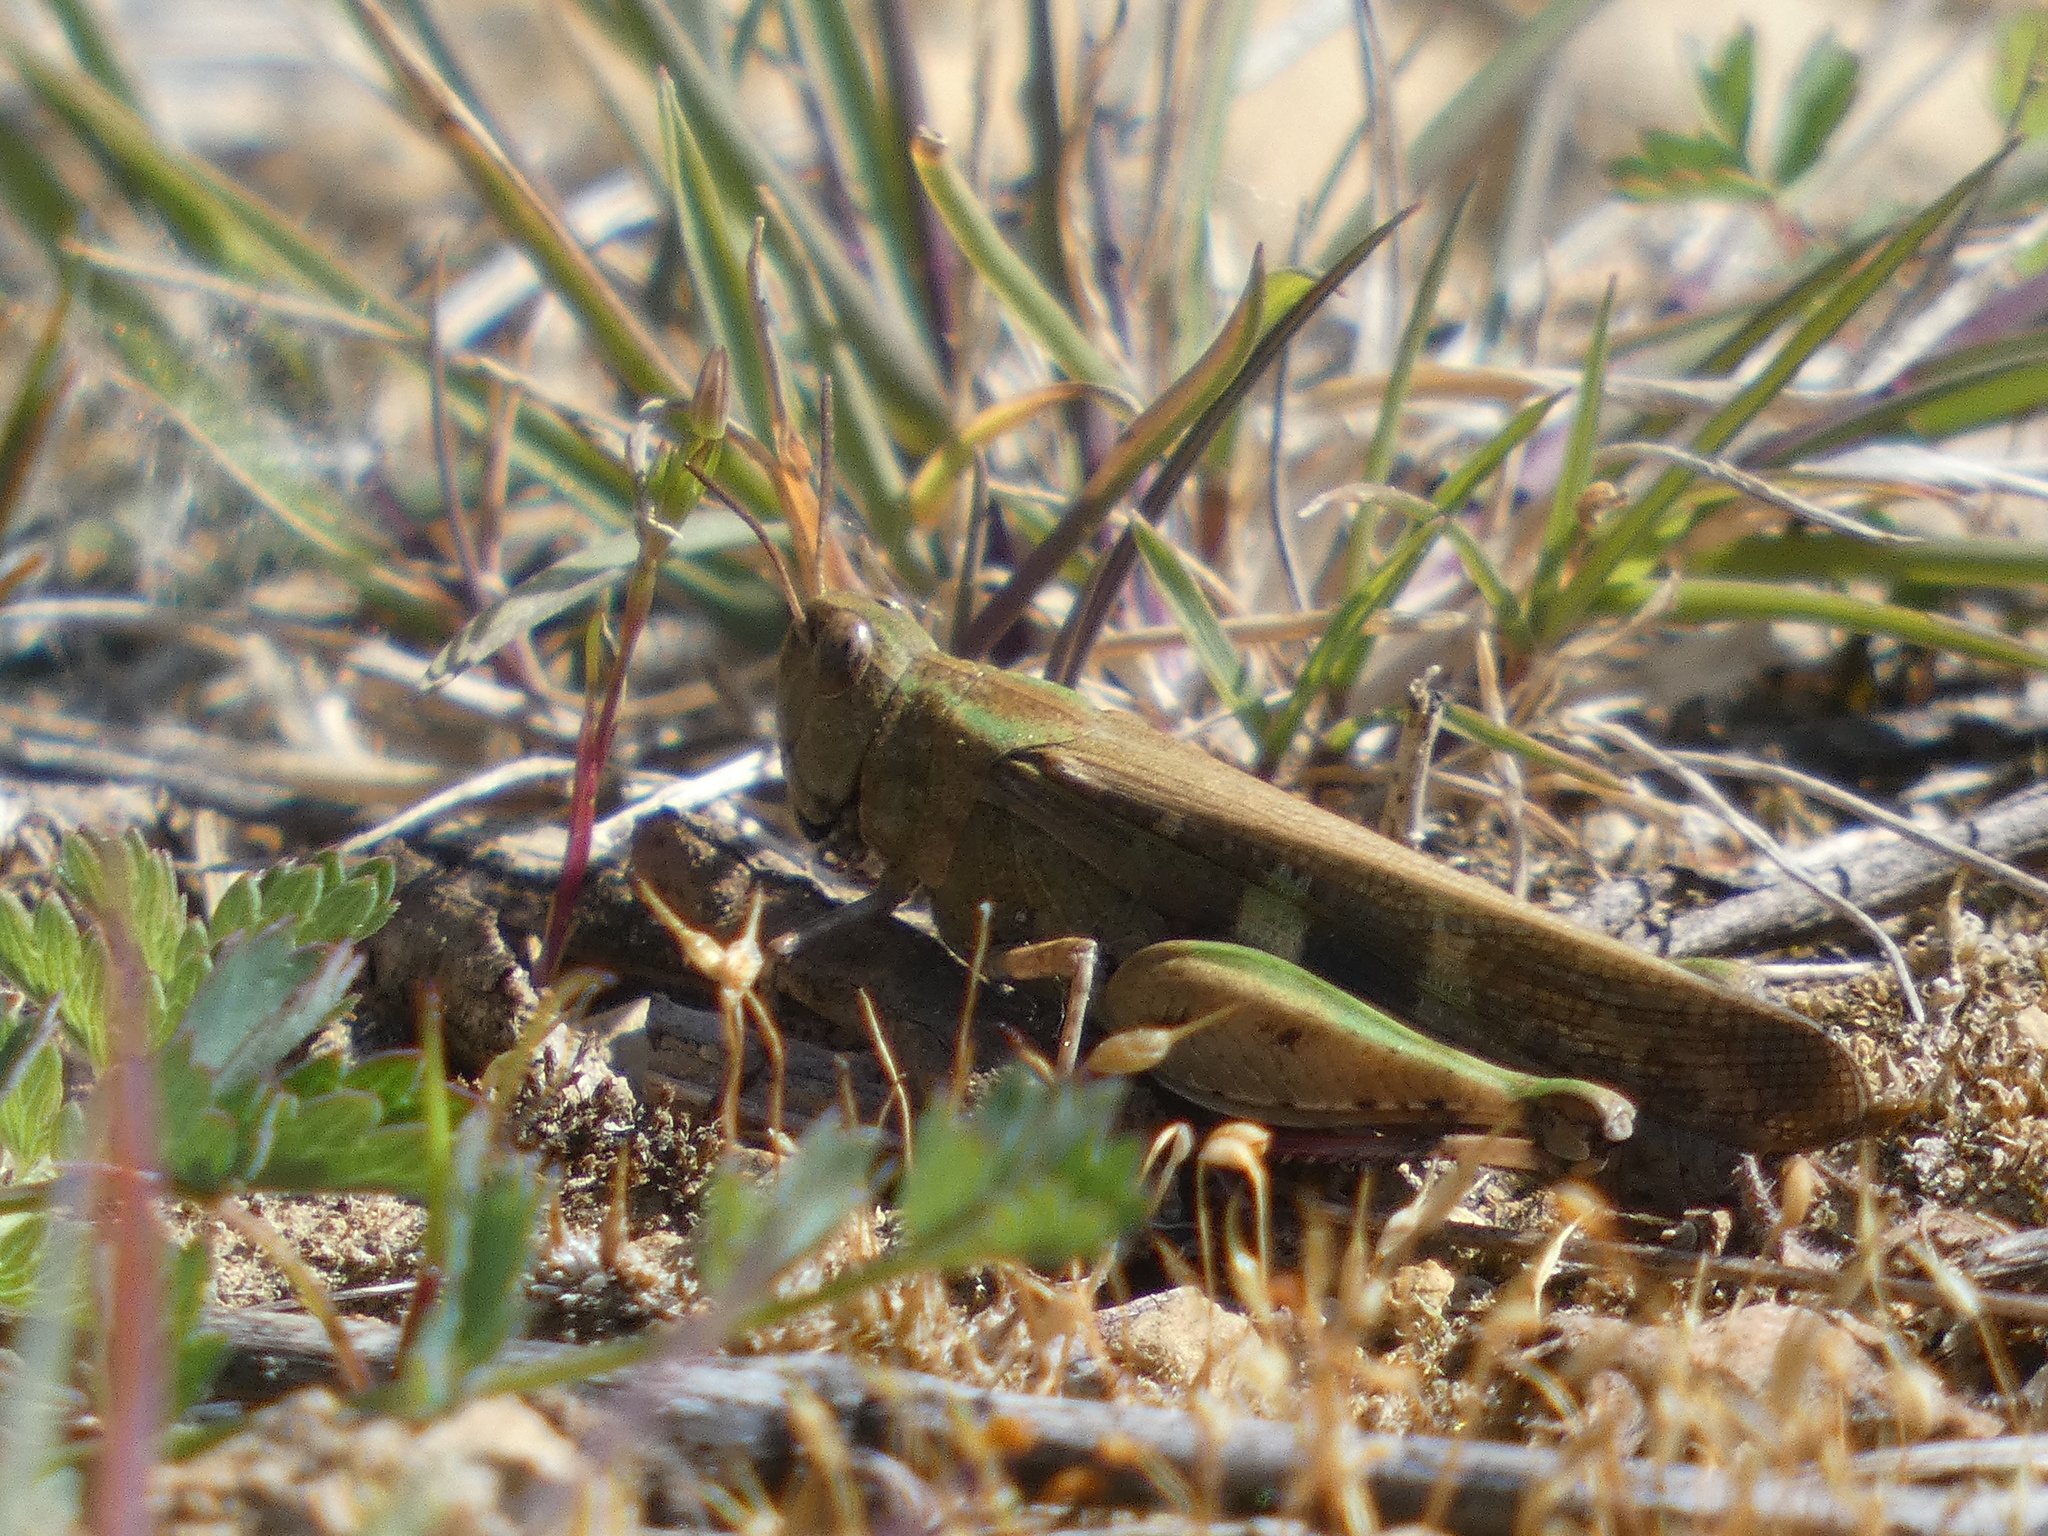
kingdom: Animalia
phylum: Arthropoda
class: Insecta
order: Orthoptera
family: Acrididae
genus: Aiolopus
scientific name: Aiolopus strepens
